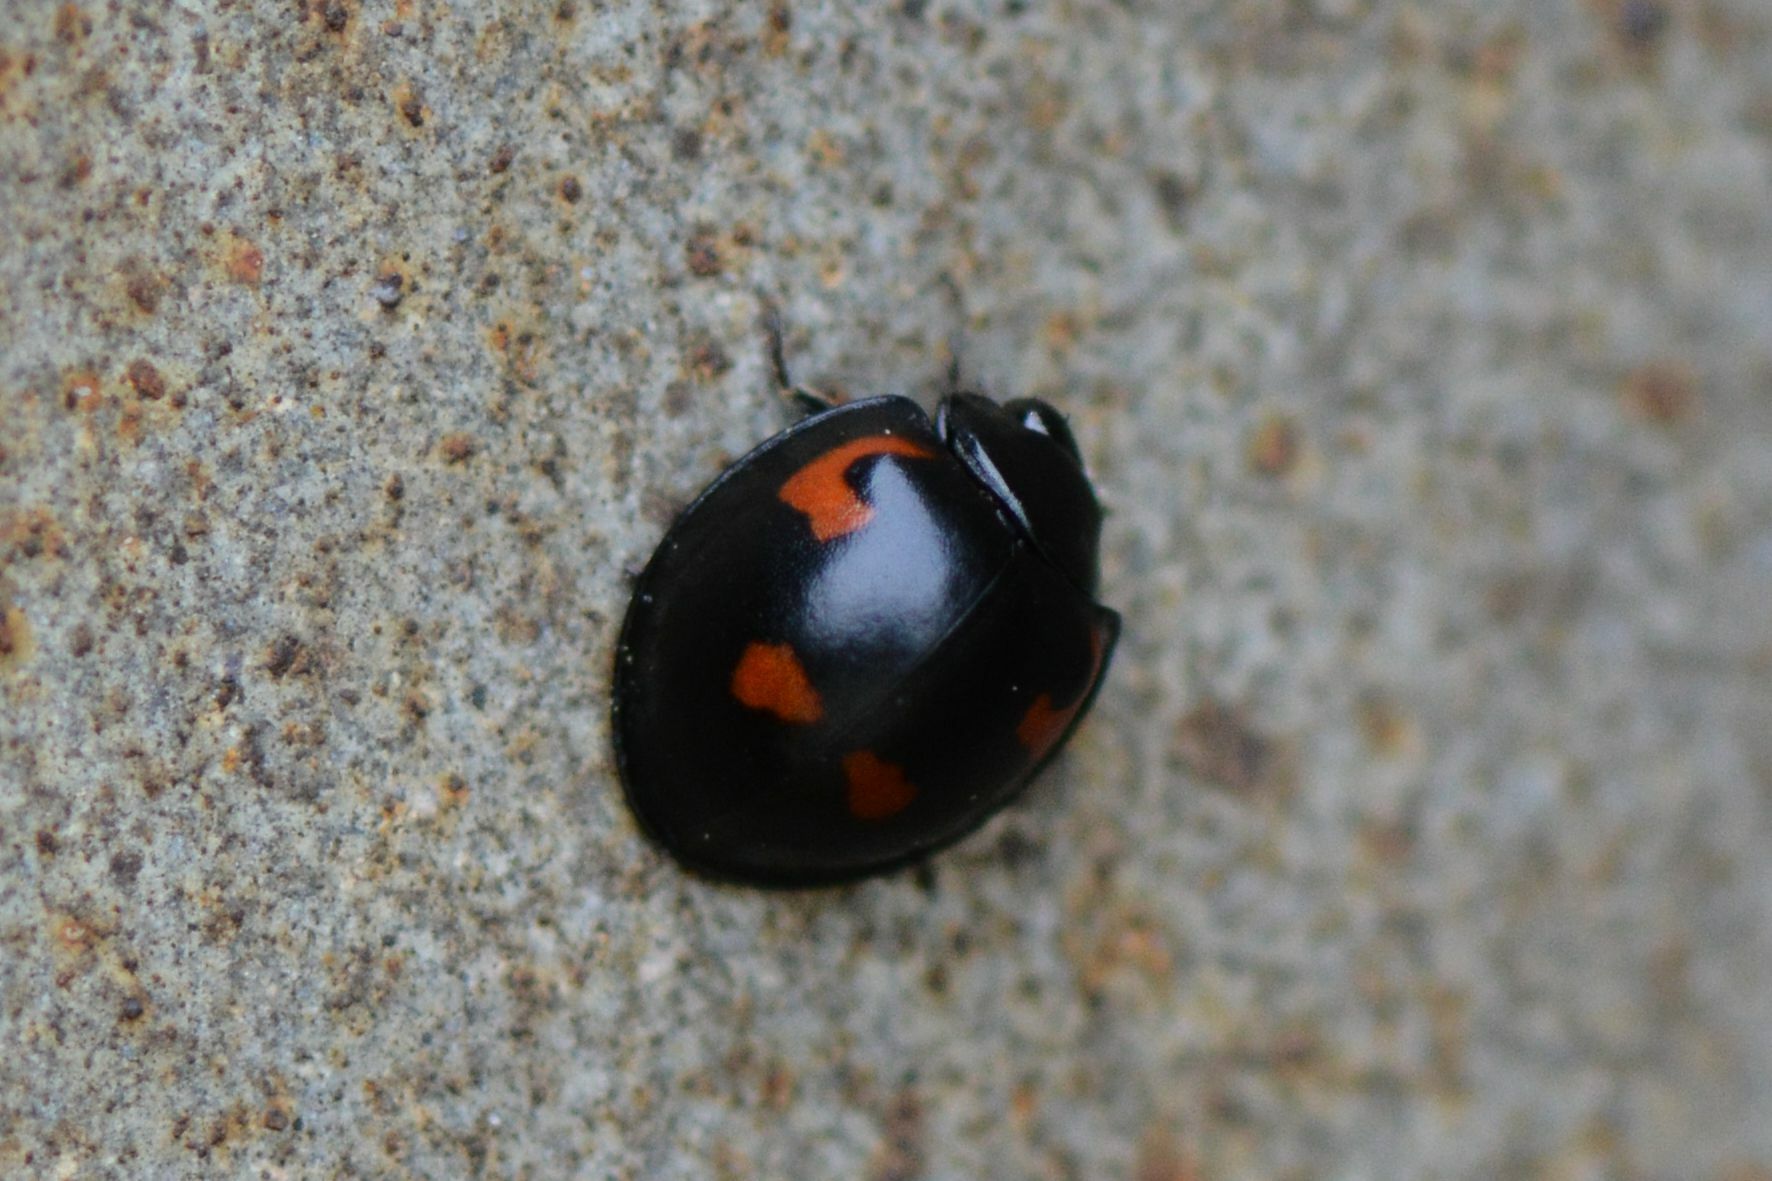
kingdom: Animalia
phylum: Arthropoda
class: Insecta
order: Coleoptera
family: Coccinellidae
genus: Brumus
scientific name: Brumus quadripustulatus
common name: Ladybird beetle
